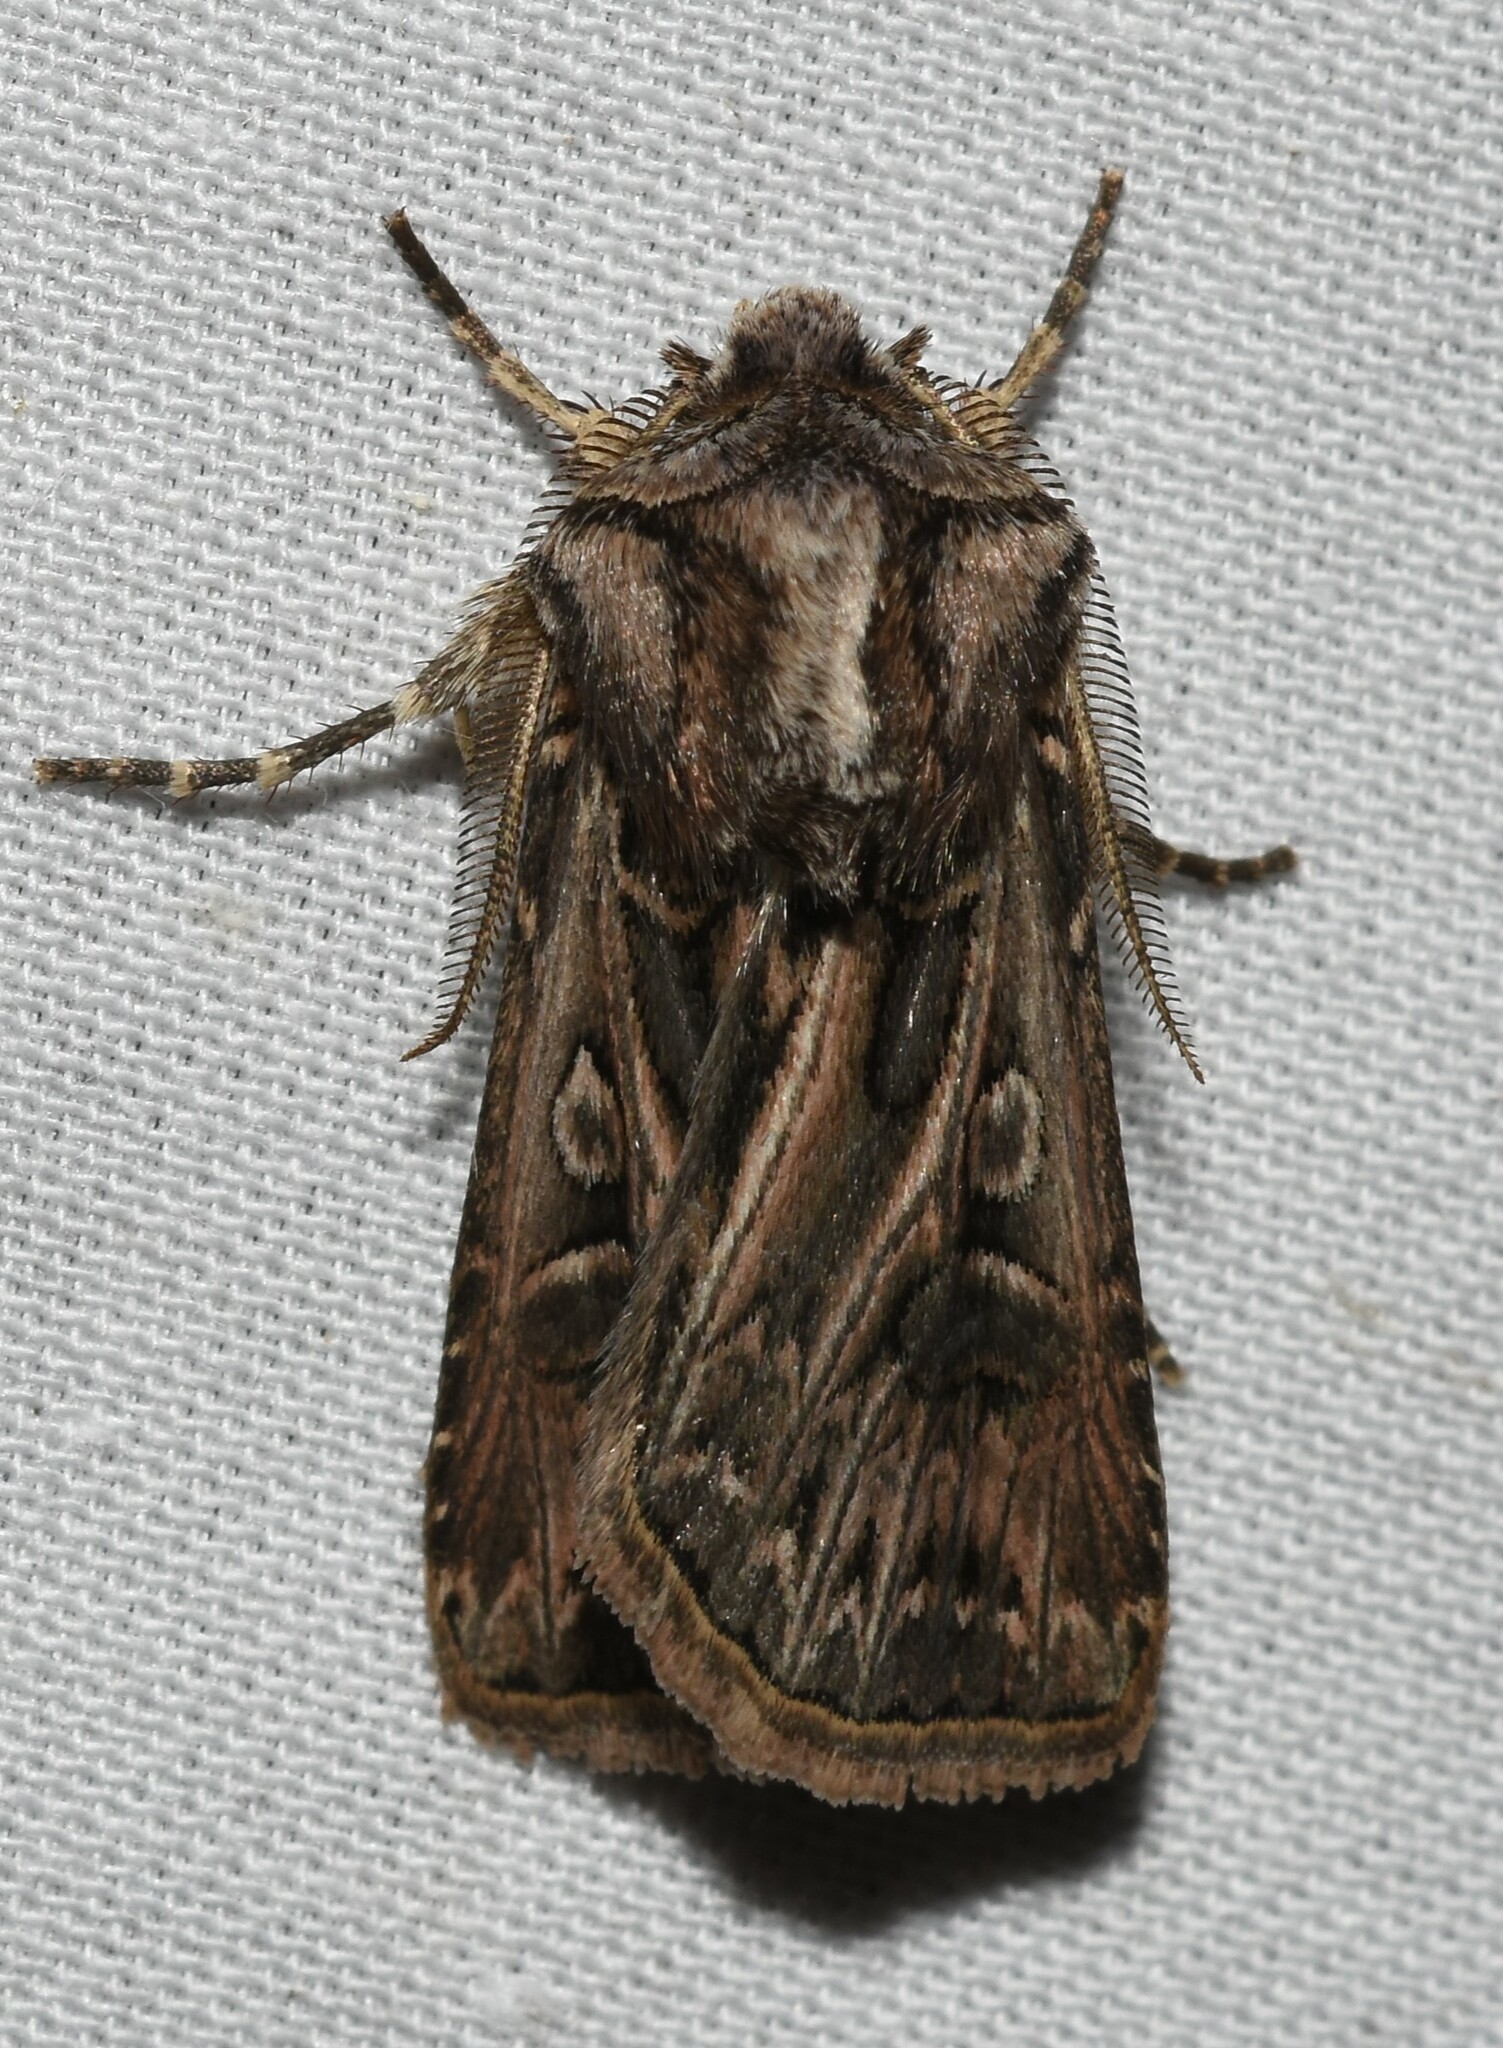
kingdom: Animalia
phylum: Arthropoda
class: Insecta
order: Lepidoptera
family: Noctuidae
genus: Agrotis
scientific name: Agrotis gladiaria
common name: Claybacked cutworm
